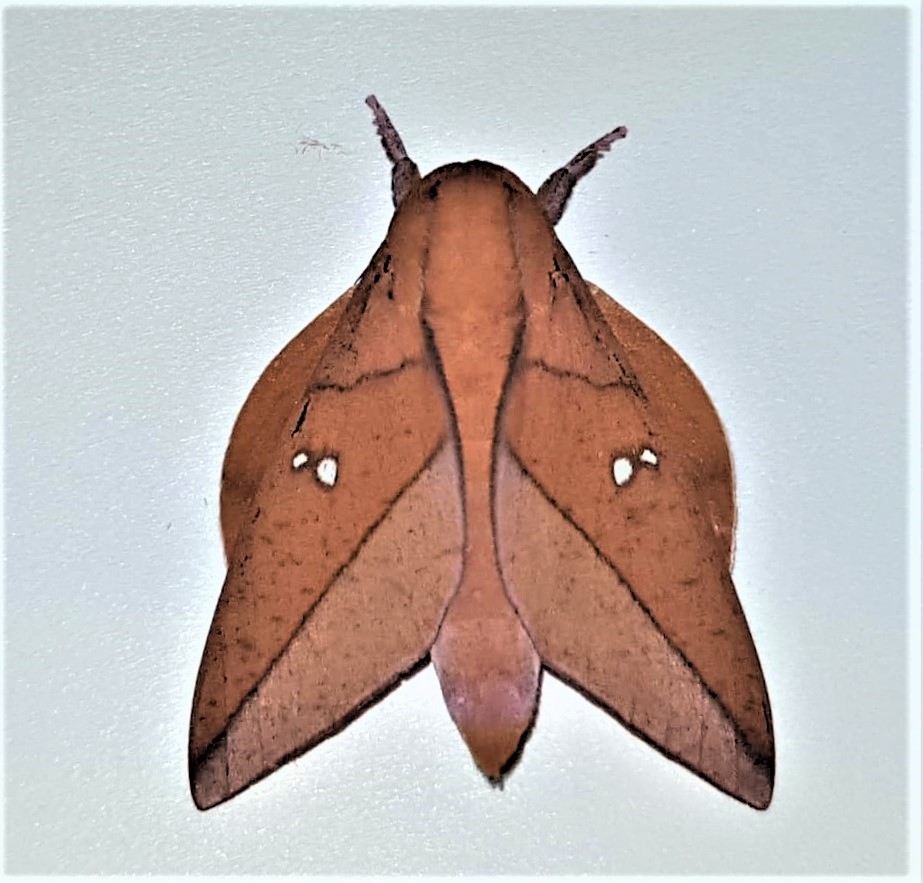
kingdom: Animalia
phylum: Arthropoda
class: Insecta
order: Lepidoptera
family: Saturniidae
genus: Adeloneivaia
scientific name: Adeloneivaia boisduvalii
